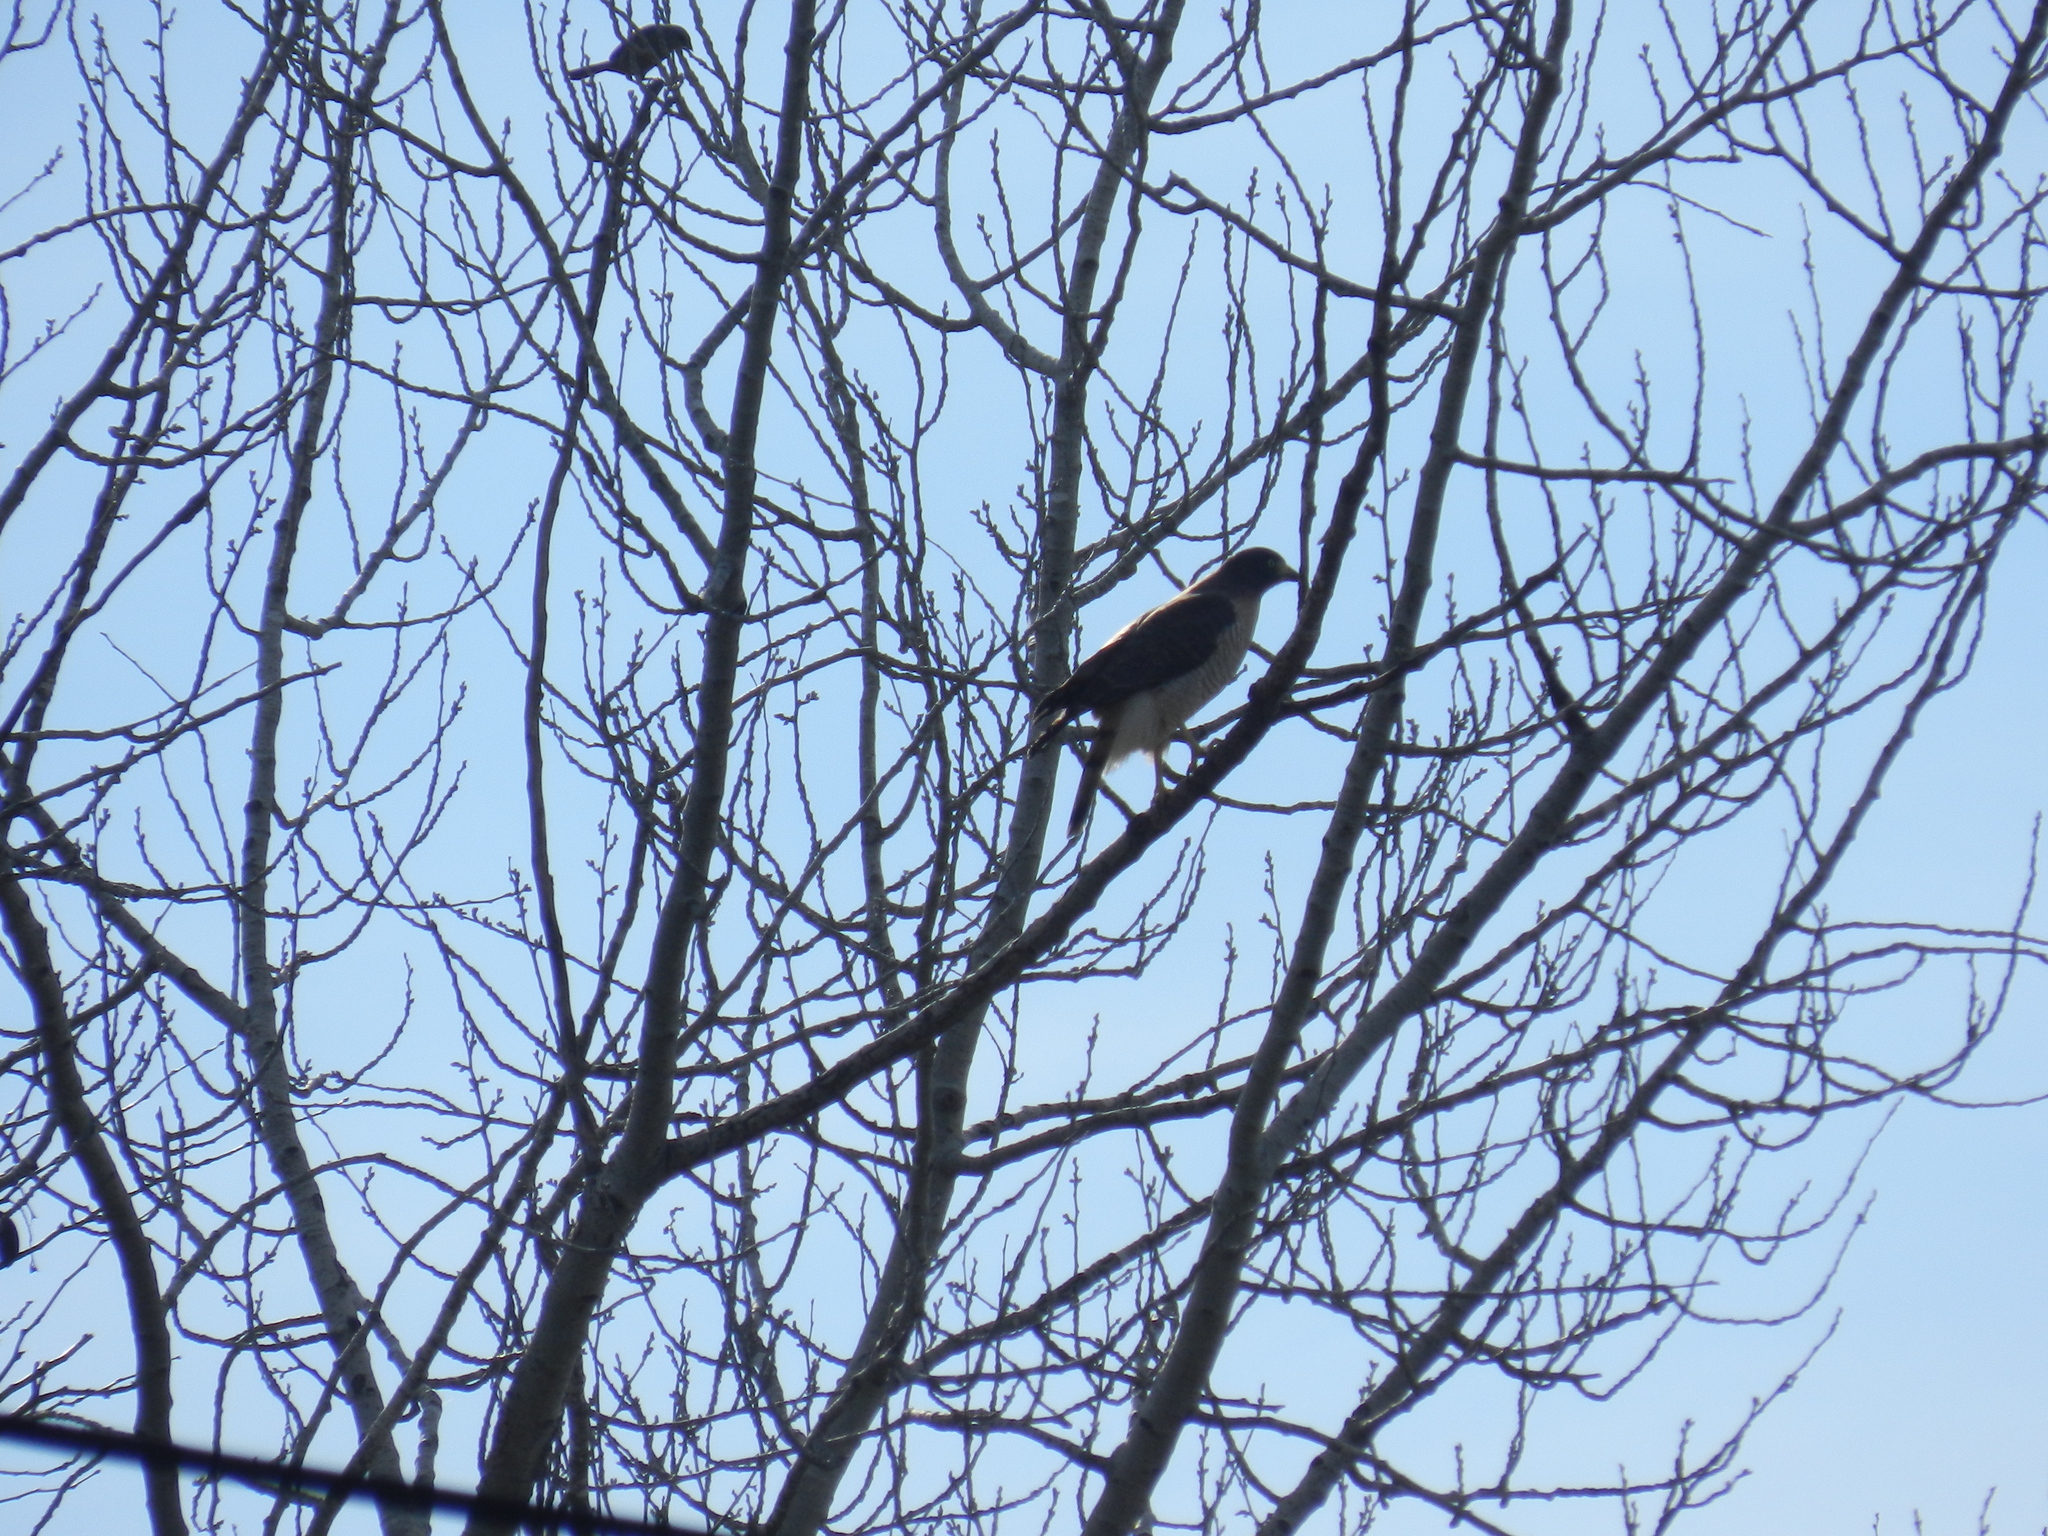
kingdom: Animalia
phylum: Chordata
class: Aves
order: Accipitriformes
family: Accipitridae
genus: Rupornis
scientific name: Rupornis magnirostris
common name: Roadside hawk
